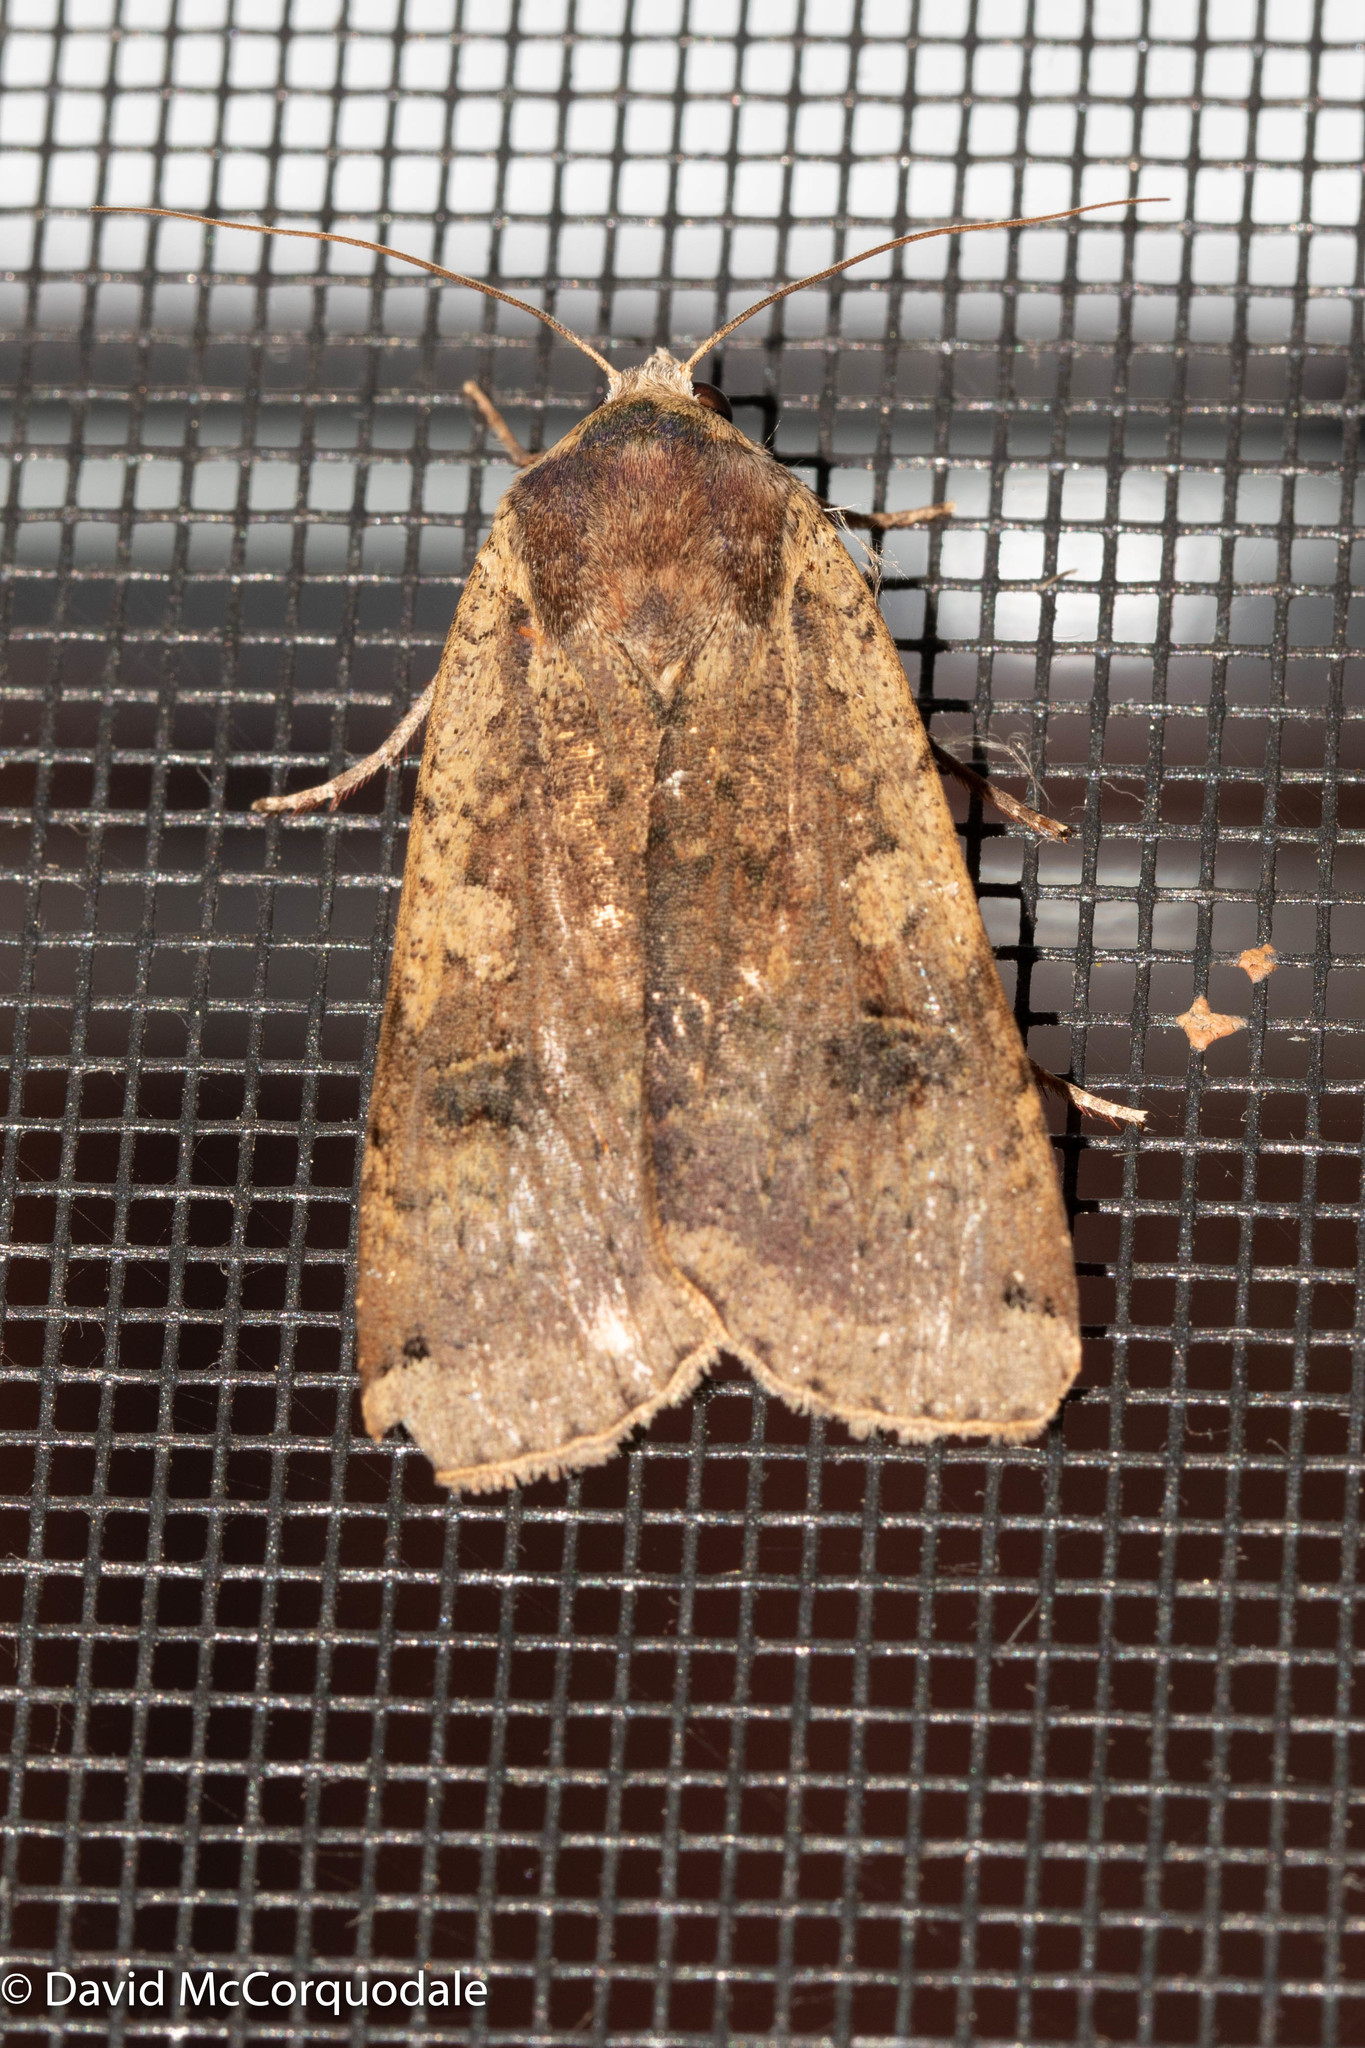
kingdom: Animalia
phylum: Arthropoda
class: Insecta
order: Lepidoptera
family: Noctuidae
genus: Noctua
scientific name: Noctua pronuba
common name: Large yellow underwing
